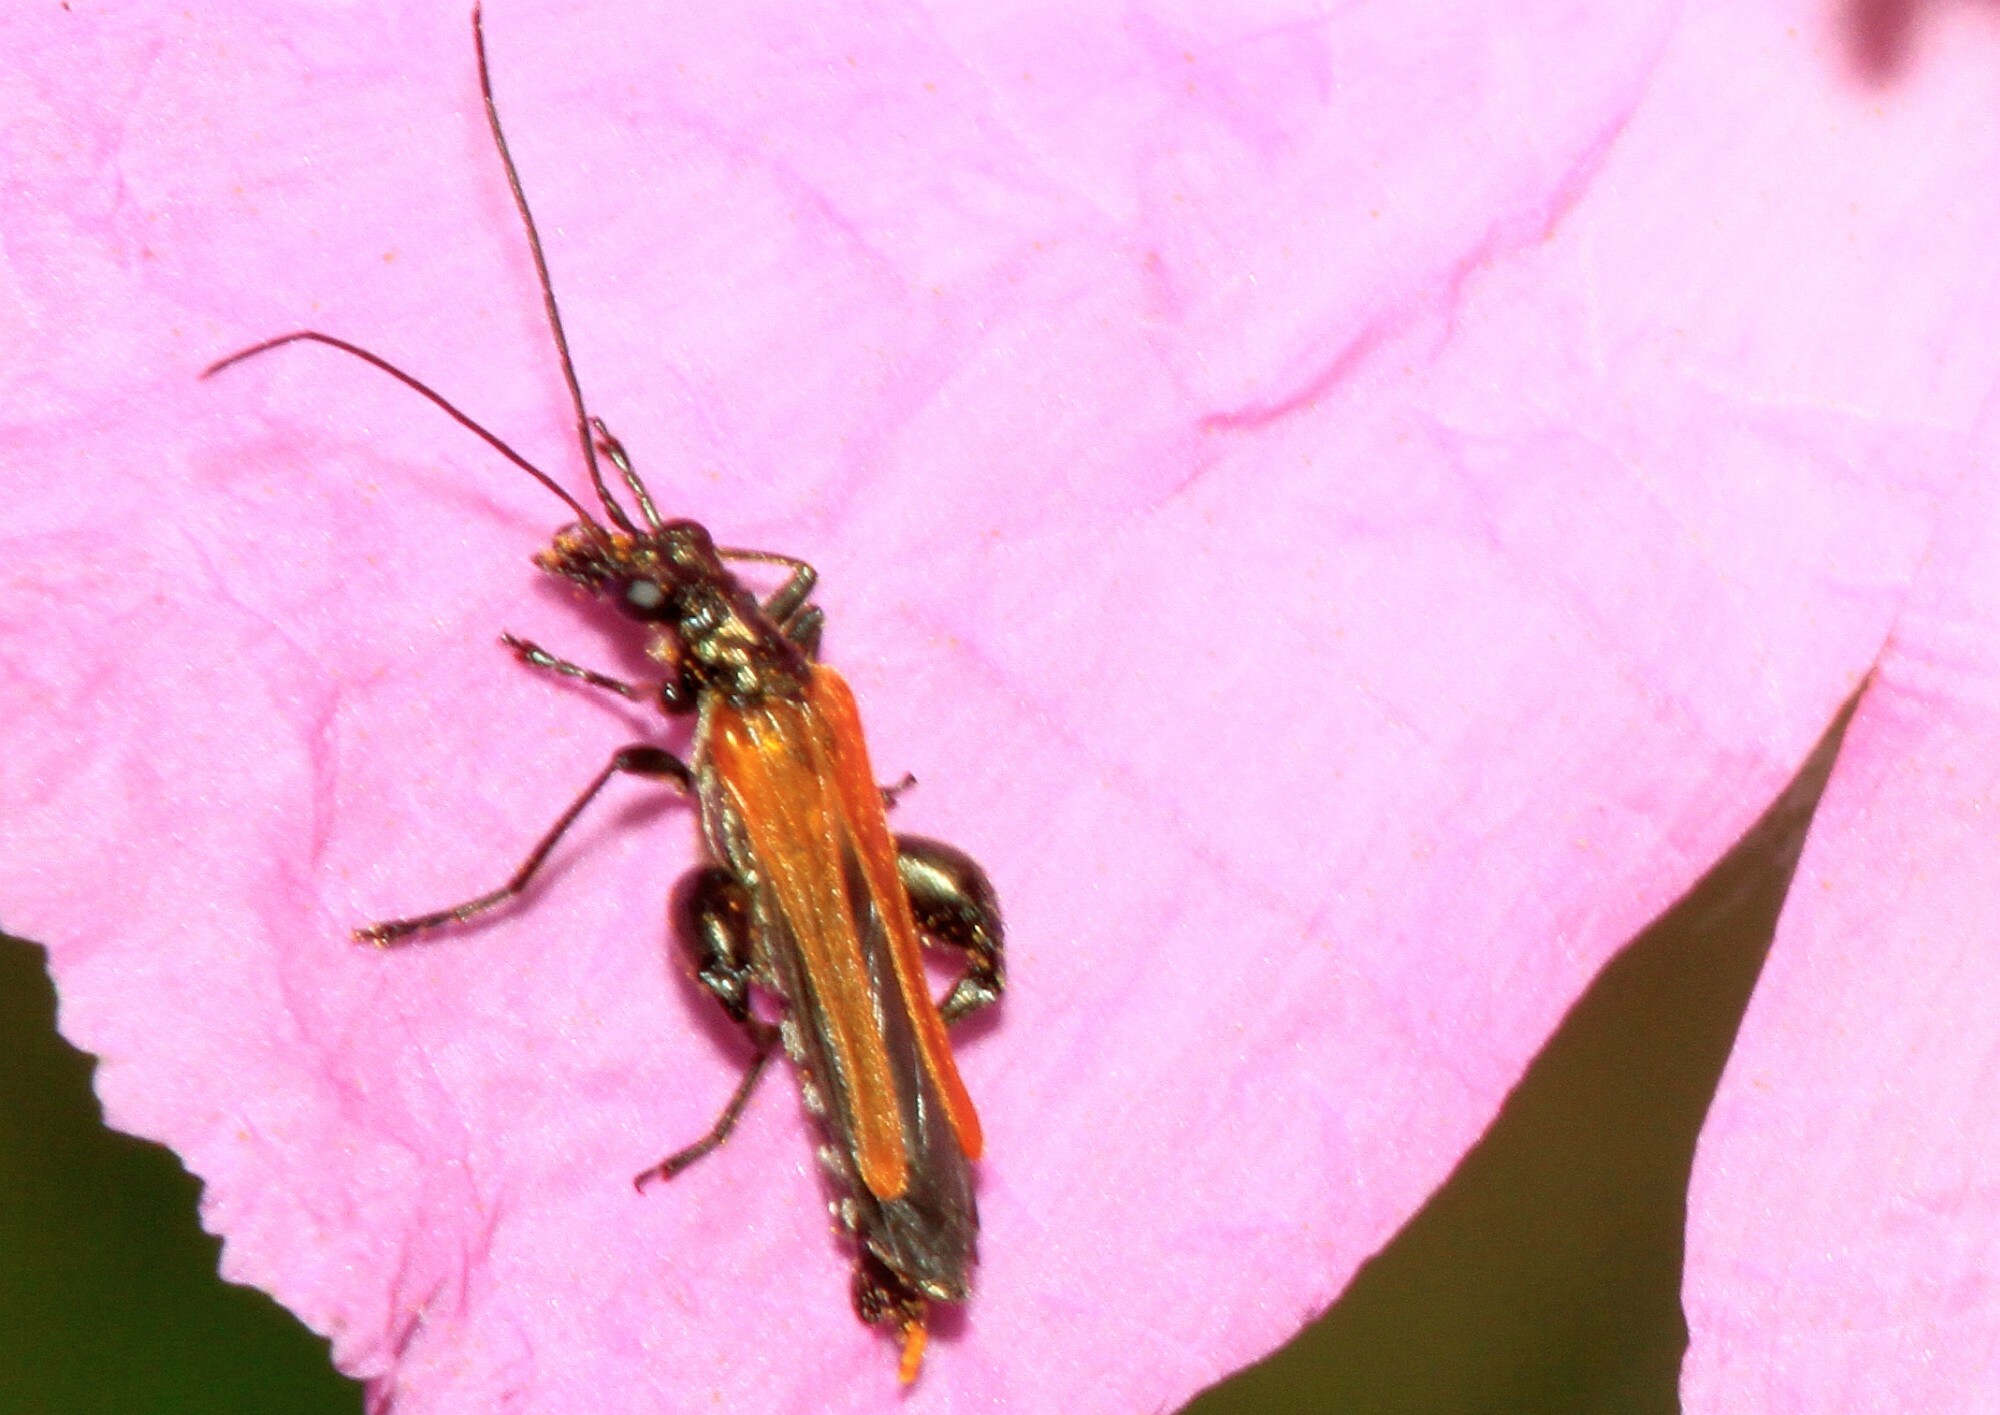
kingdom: Animalia
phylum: Arthropoda
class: Insecta
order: Coleoptera
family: Oedemeridae
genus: Oedemera
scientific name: Oedemera femorata
